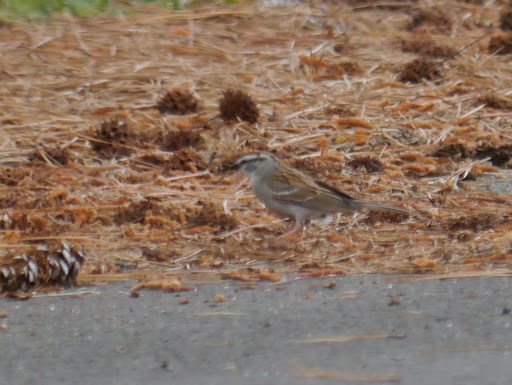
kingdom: Animalia
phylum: Chordata
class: Aves
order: Passeriformes
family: Passerellidae
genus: Spizella
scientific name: Spizella passerina
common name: Chipping sparrow
